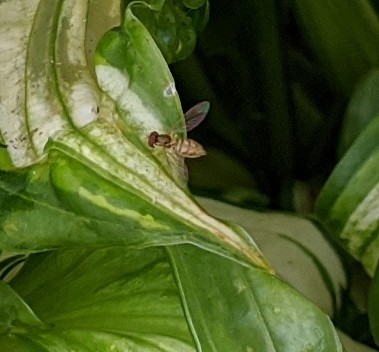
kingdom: Animalia
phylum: Arthropoda
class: Insecta
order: Diptera
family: Syrphidae
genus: Toxomerus
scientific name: Toxomerus marginatus
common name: Syrphid fly
